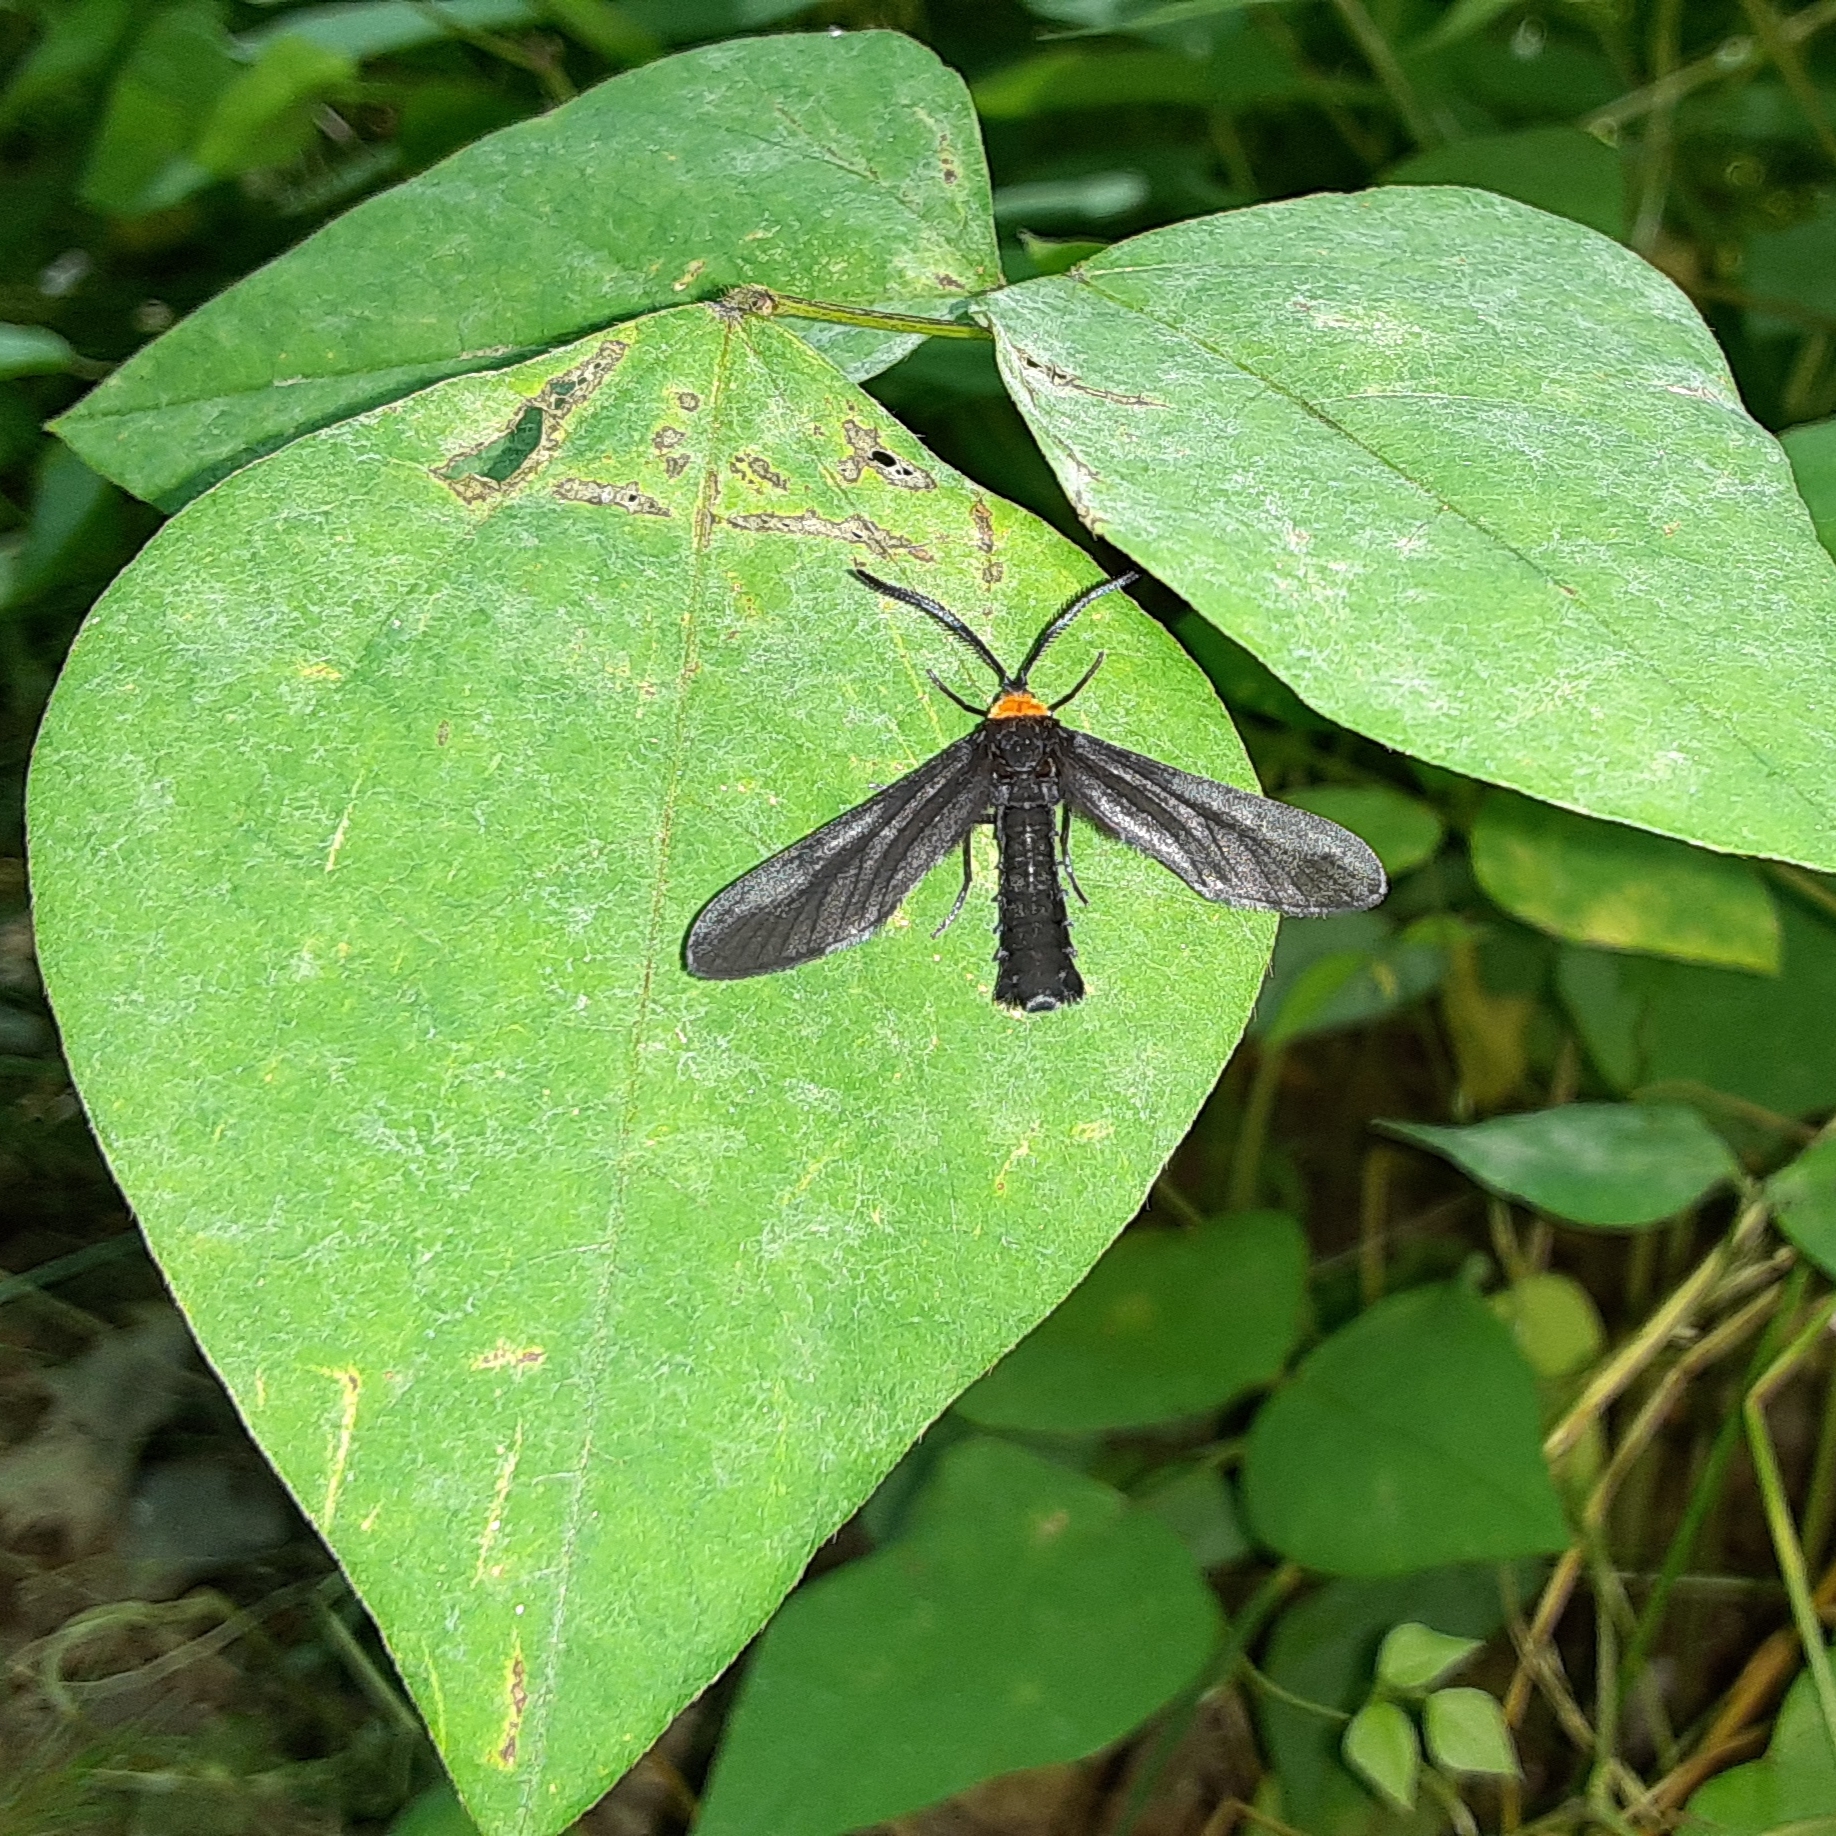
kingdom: Animalia
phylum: Arthropoda
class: Insecta
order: Lepidoptera
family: Zygaenidae
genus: Harrisina
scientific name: Harrisina americana
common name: Grapeleaf skeletonizer moth
